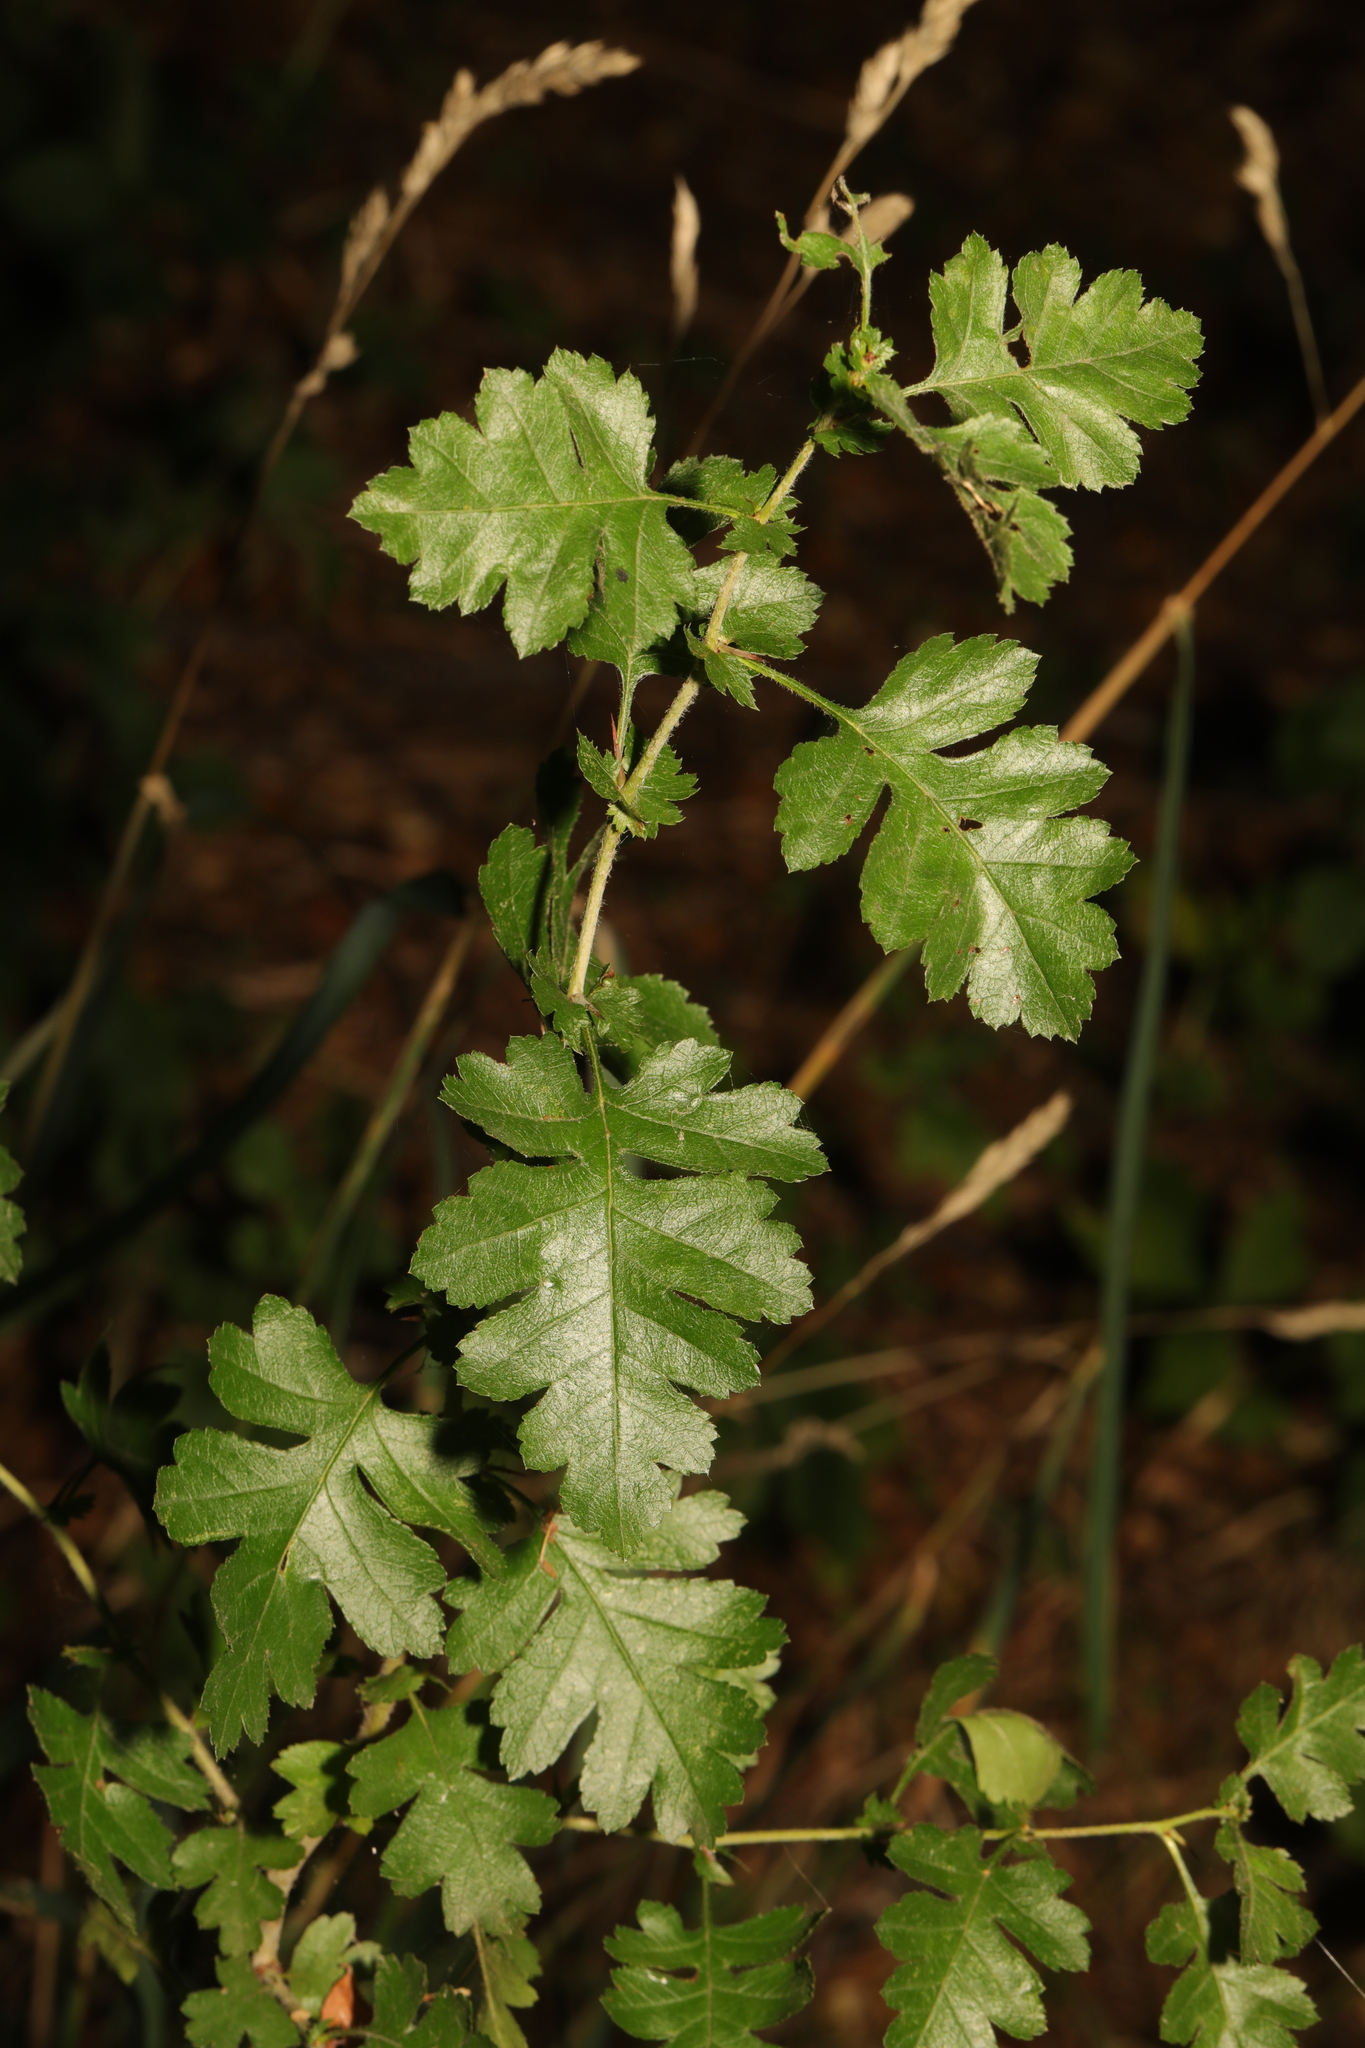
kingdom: Plantae
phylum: Tracheophyta
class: Magnoliopsida
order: Rosales
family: Rosaceae
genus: Crataegus
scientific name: Crataegus monogyna
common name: Hawthorn
